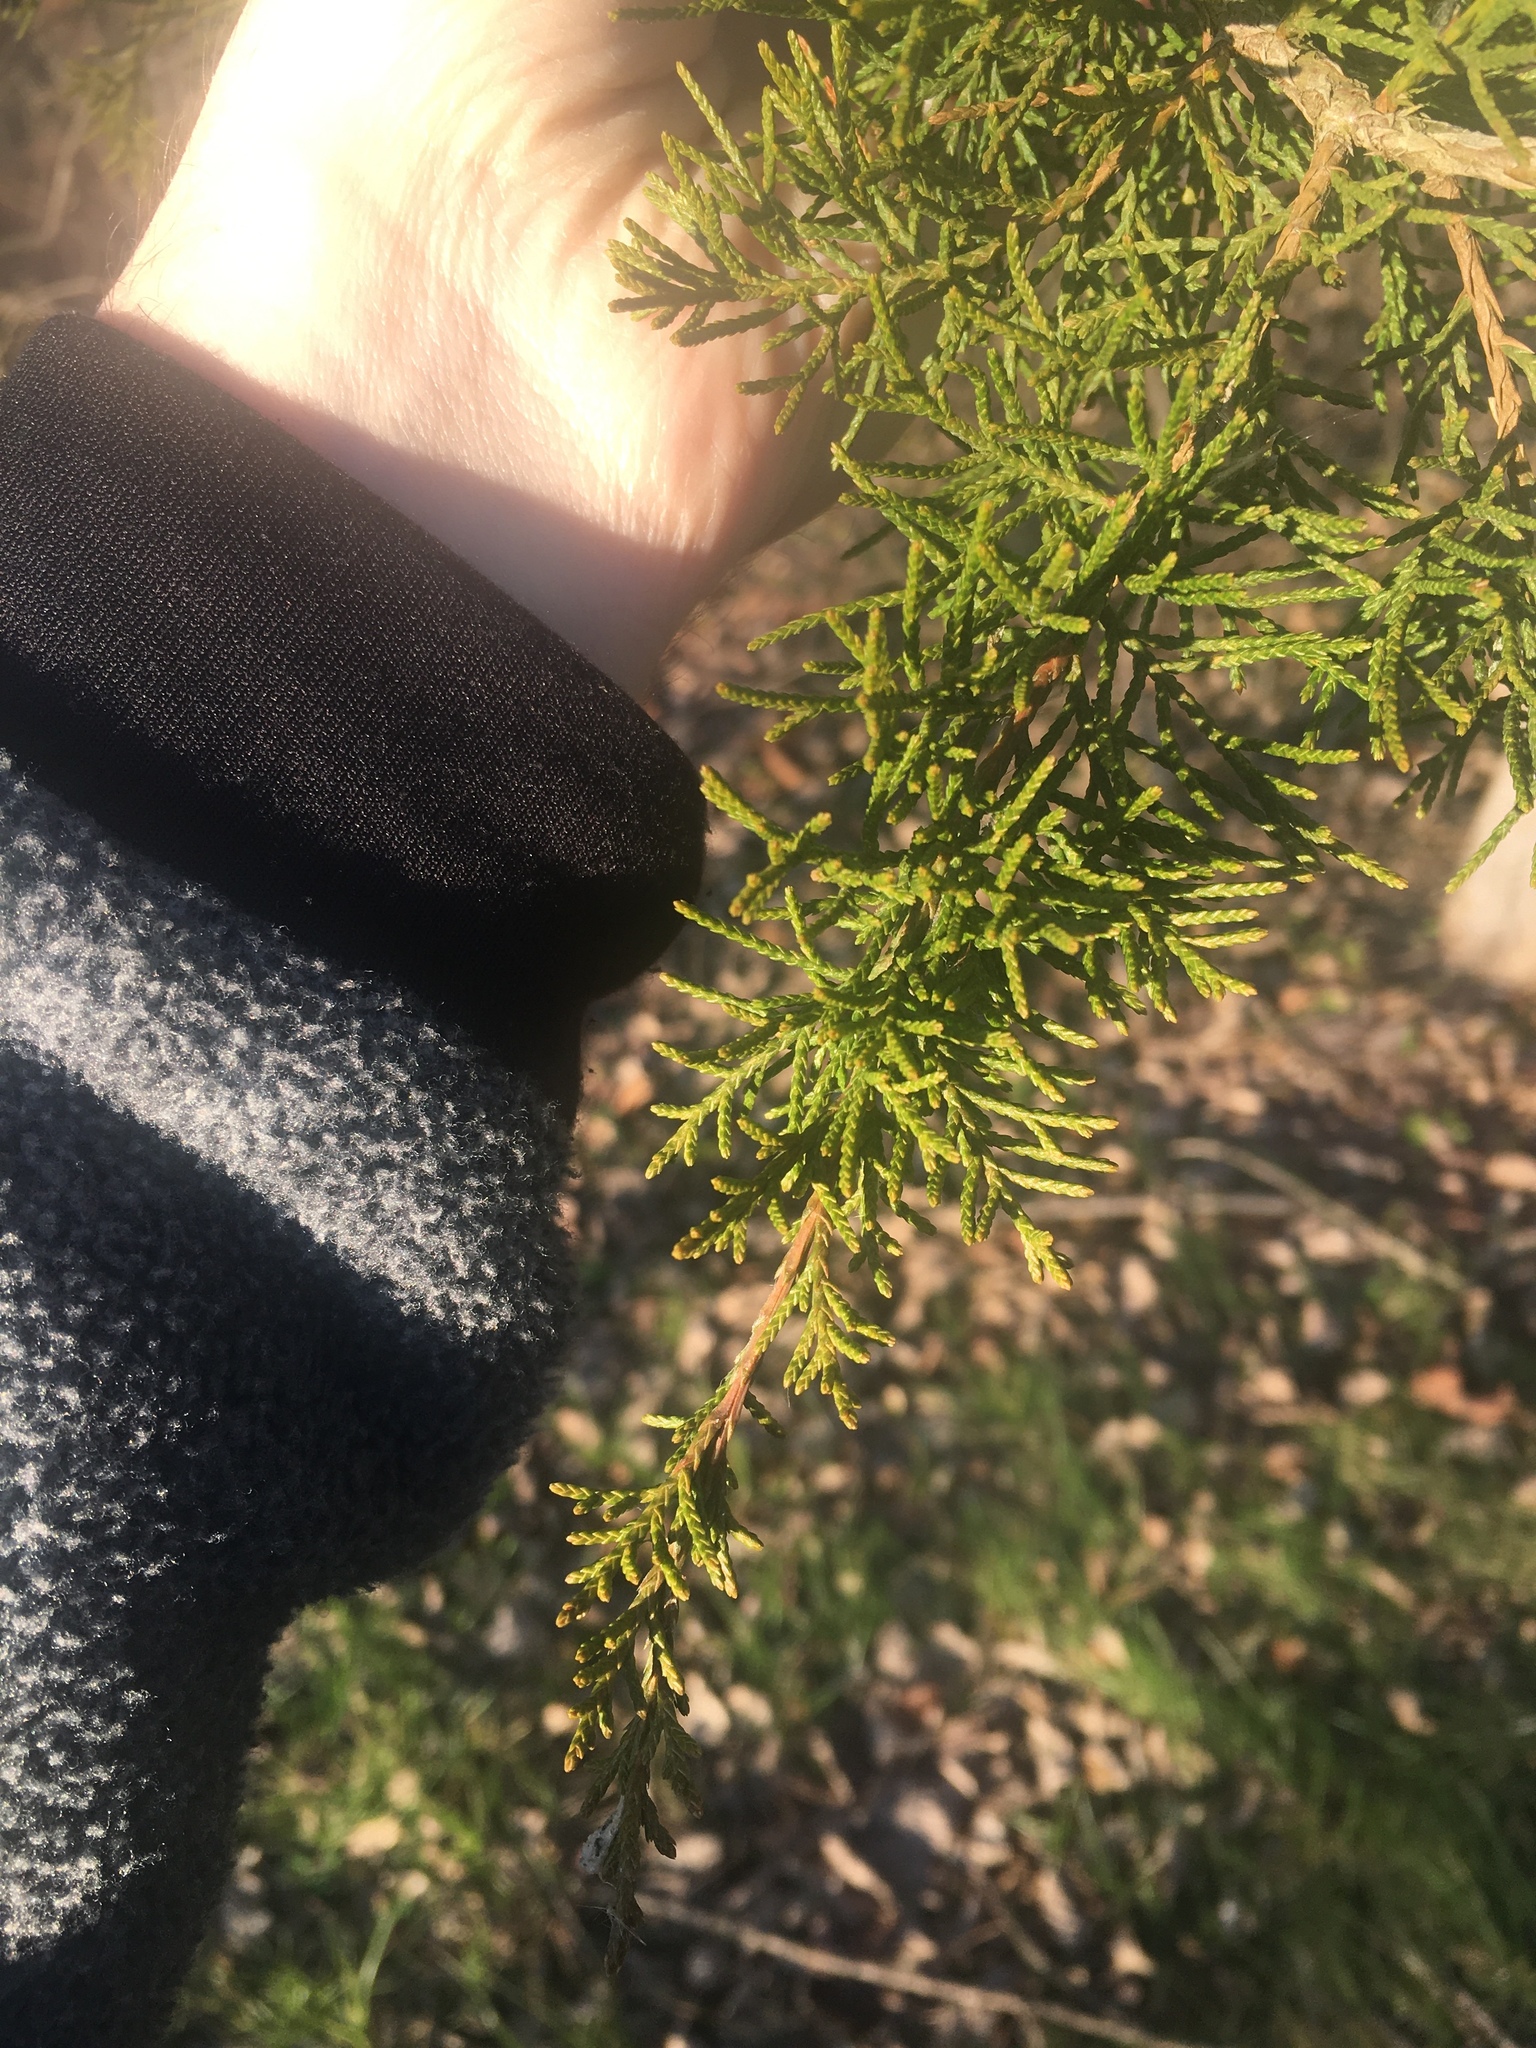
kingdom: Plantae
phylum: Tracheophyta
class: Pinopsida
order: Pinales
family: Cupressaceae
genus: Juniperus
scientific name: Juniperus virginiana
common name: Red juniper
